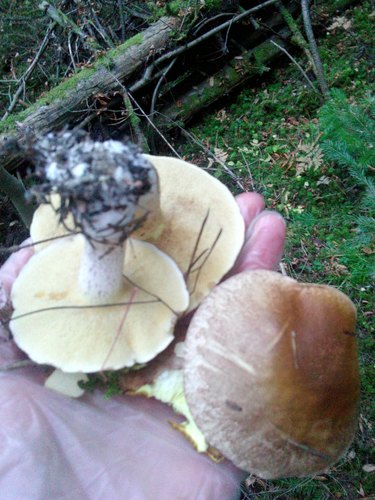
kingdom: Fungi
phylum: Basidiomycota
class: Agaricomycetes
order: Boletales
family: Suillaceae
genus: Suillus
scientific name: Suillus placidus
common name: Slippery white bolete
